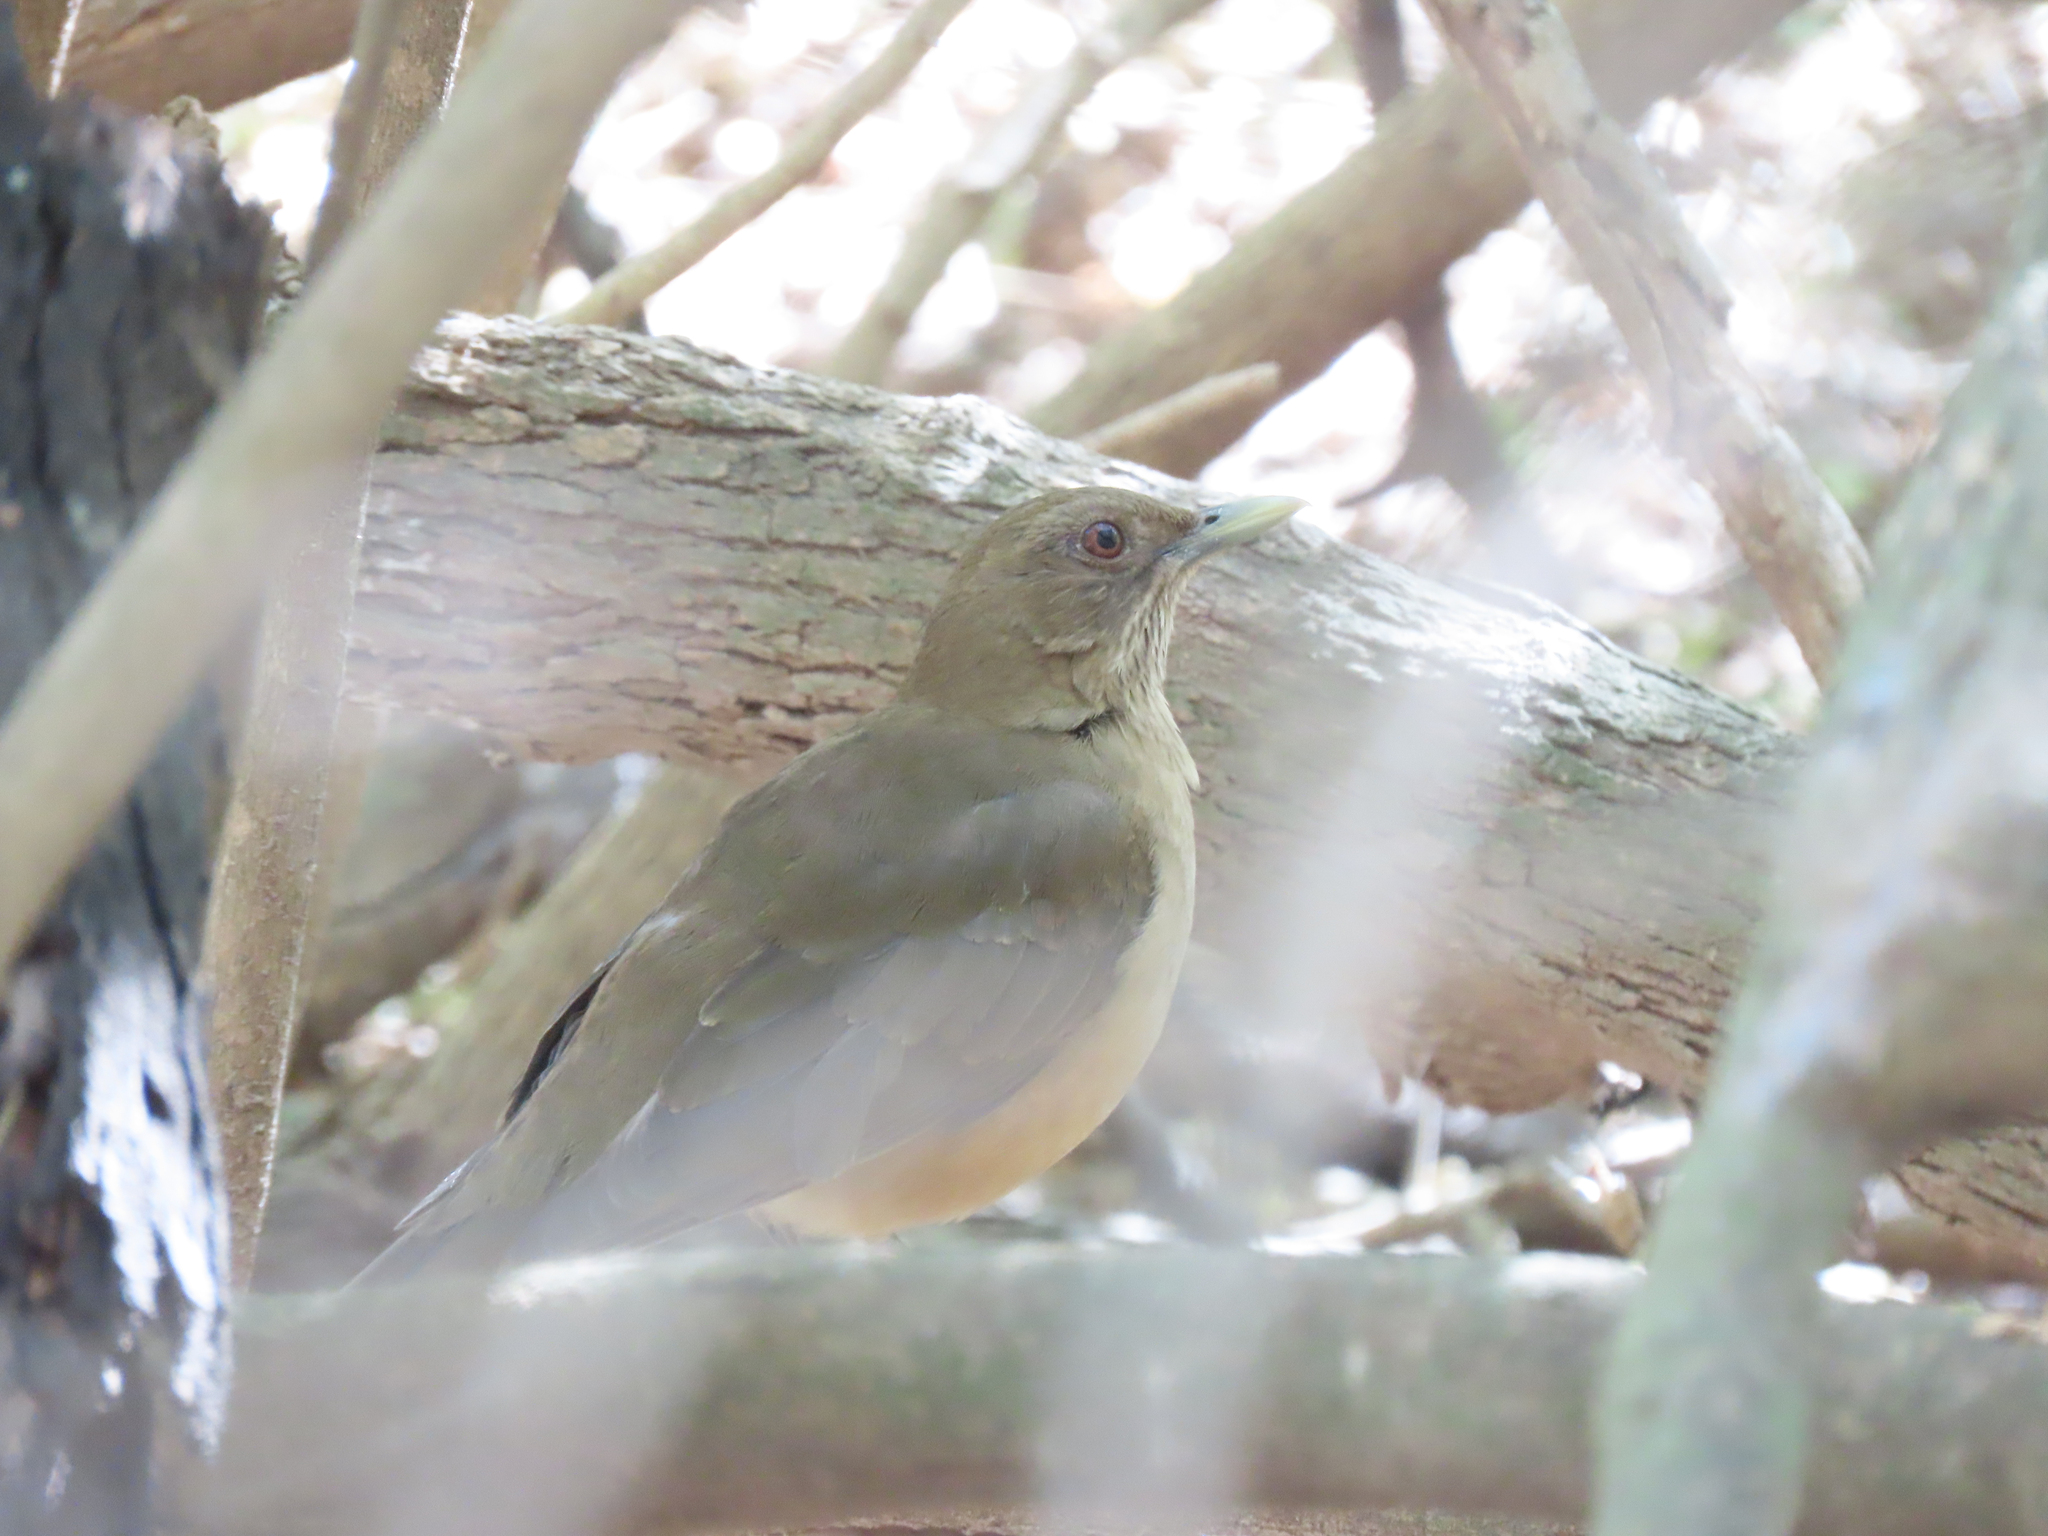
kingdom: Animalia
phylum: Chordata
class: Aves
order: Passeriformes
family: Turdidae
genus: Turdus
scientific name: Turdus grayi
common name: Clay-colored thrush
